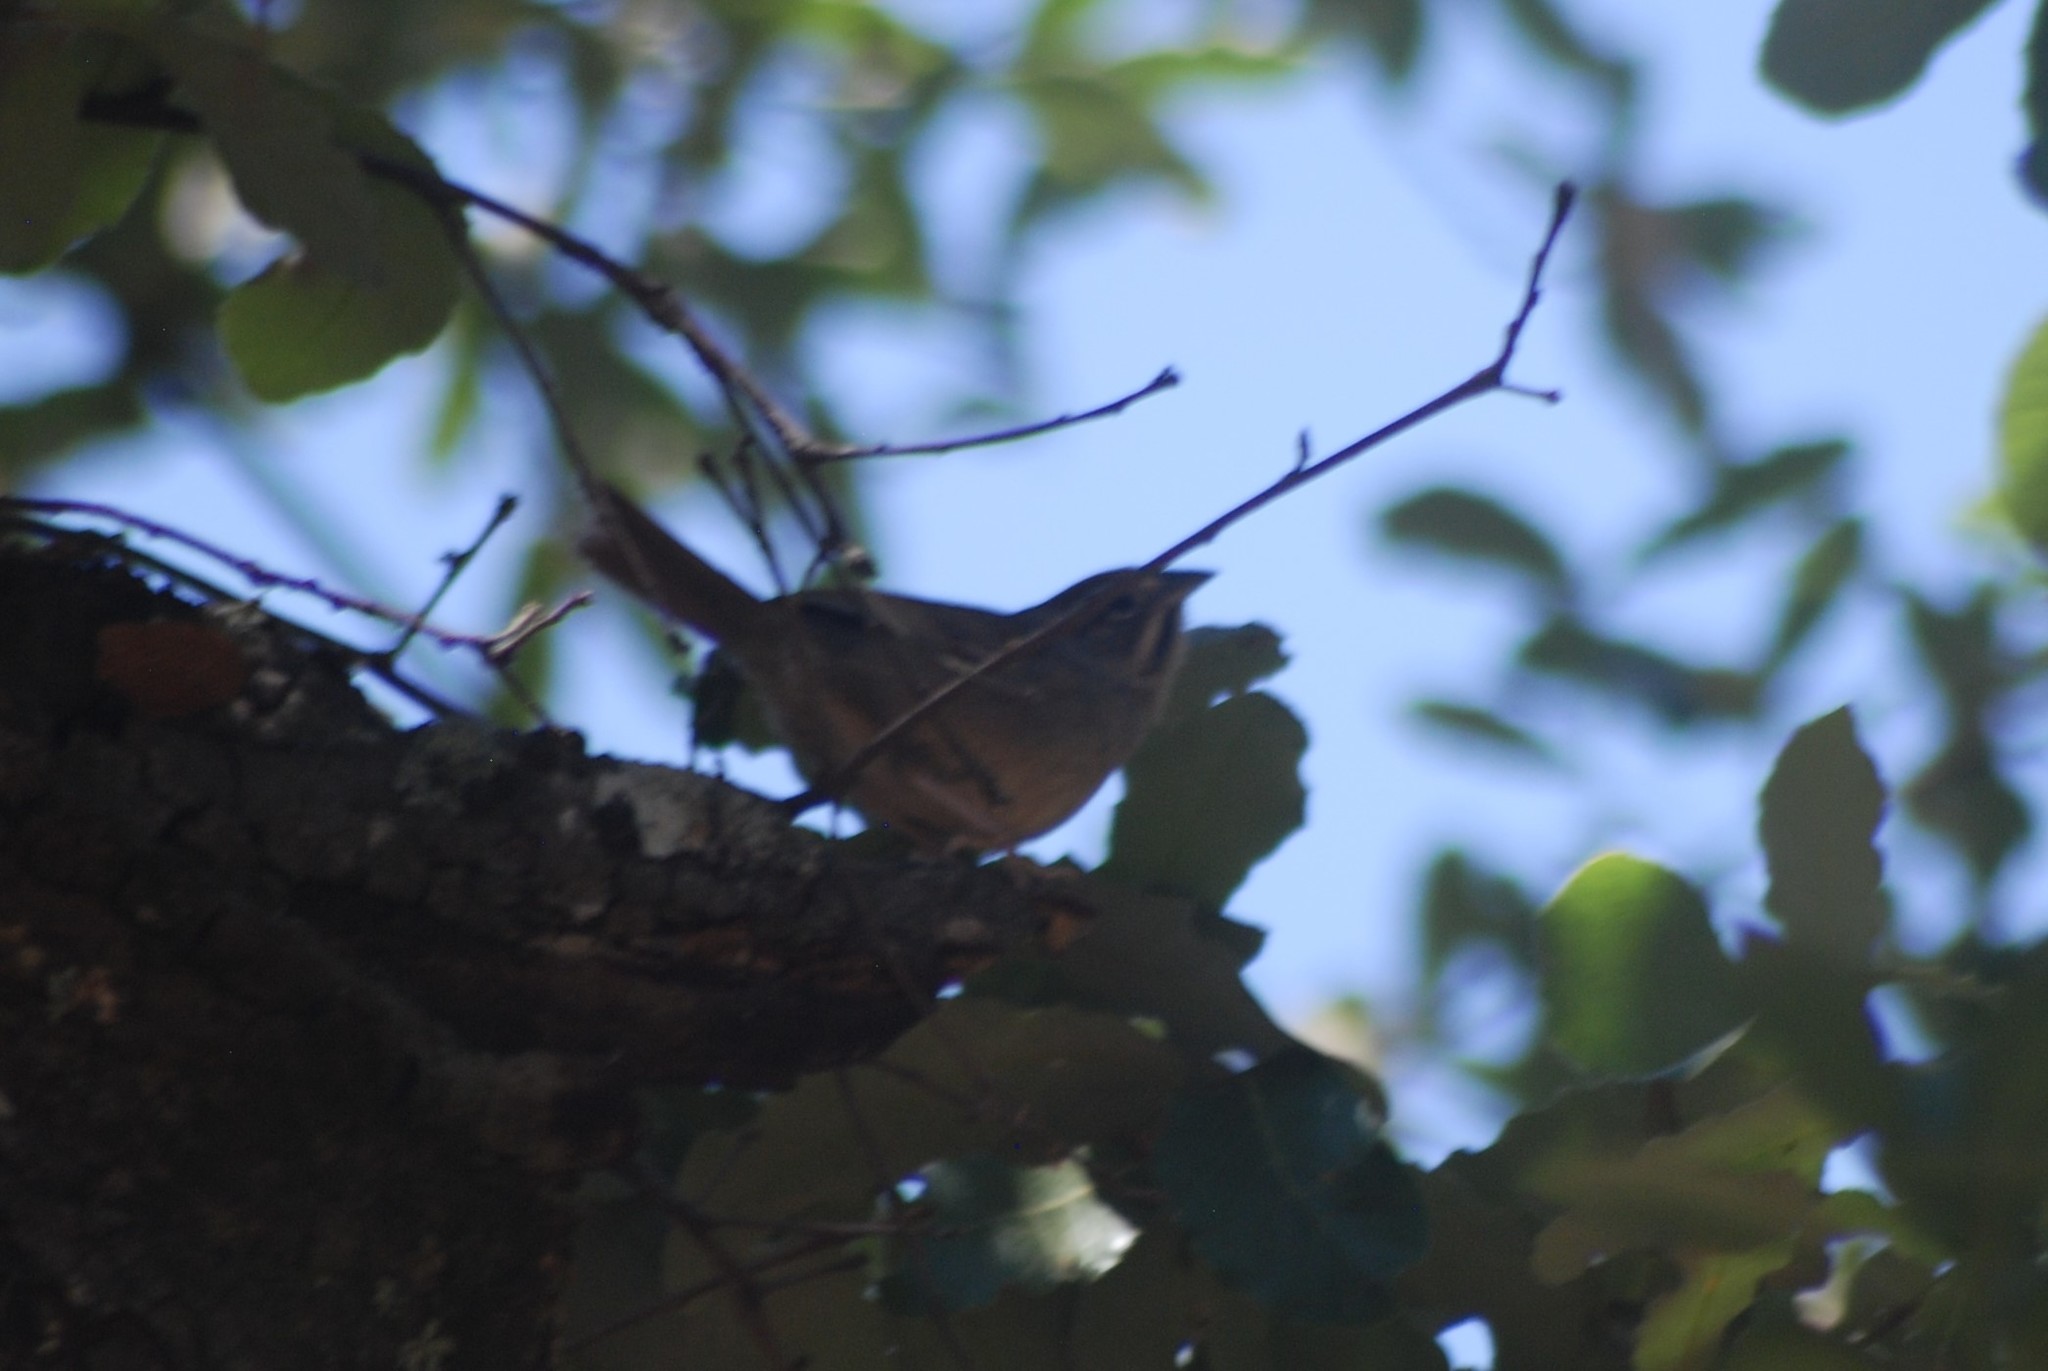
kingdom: Animalia
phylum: Chordata
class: Aves
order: Passeriformes
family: Passerellidae
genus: Aimophila
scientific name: Aimophila rufescens
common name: Rusty sparrow
